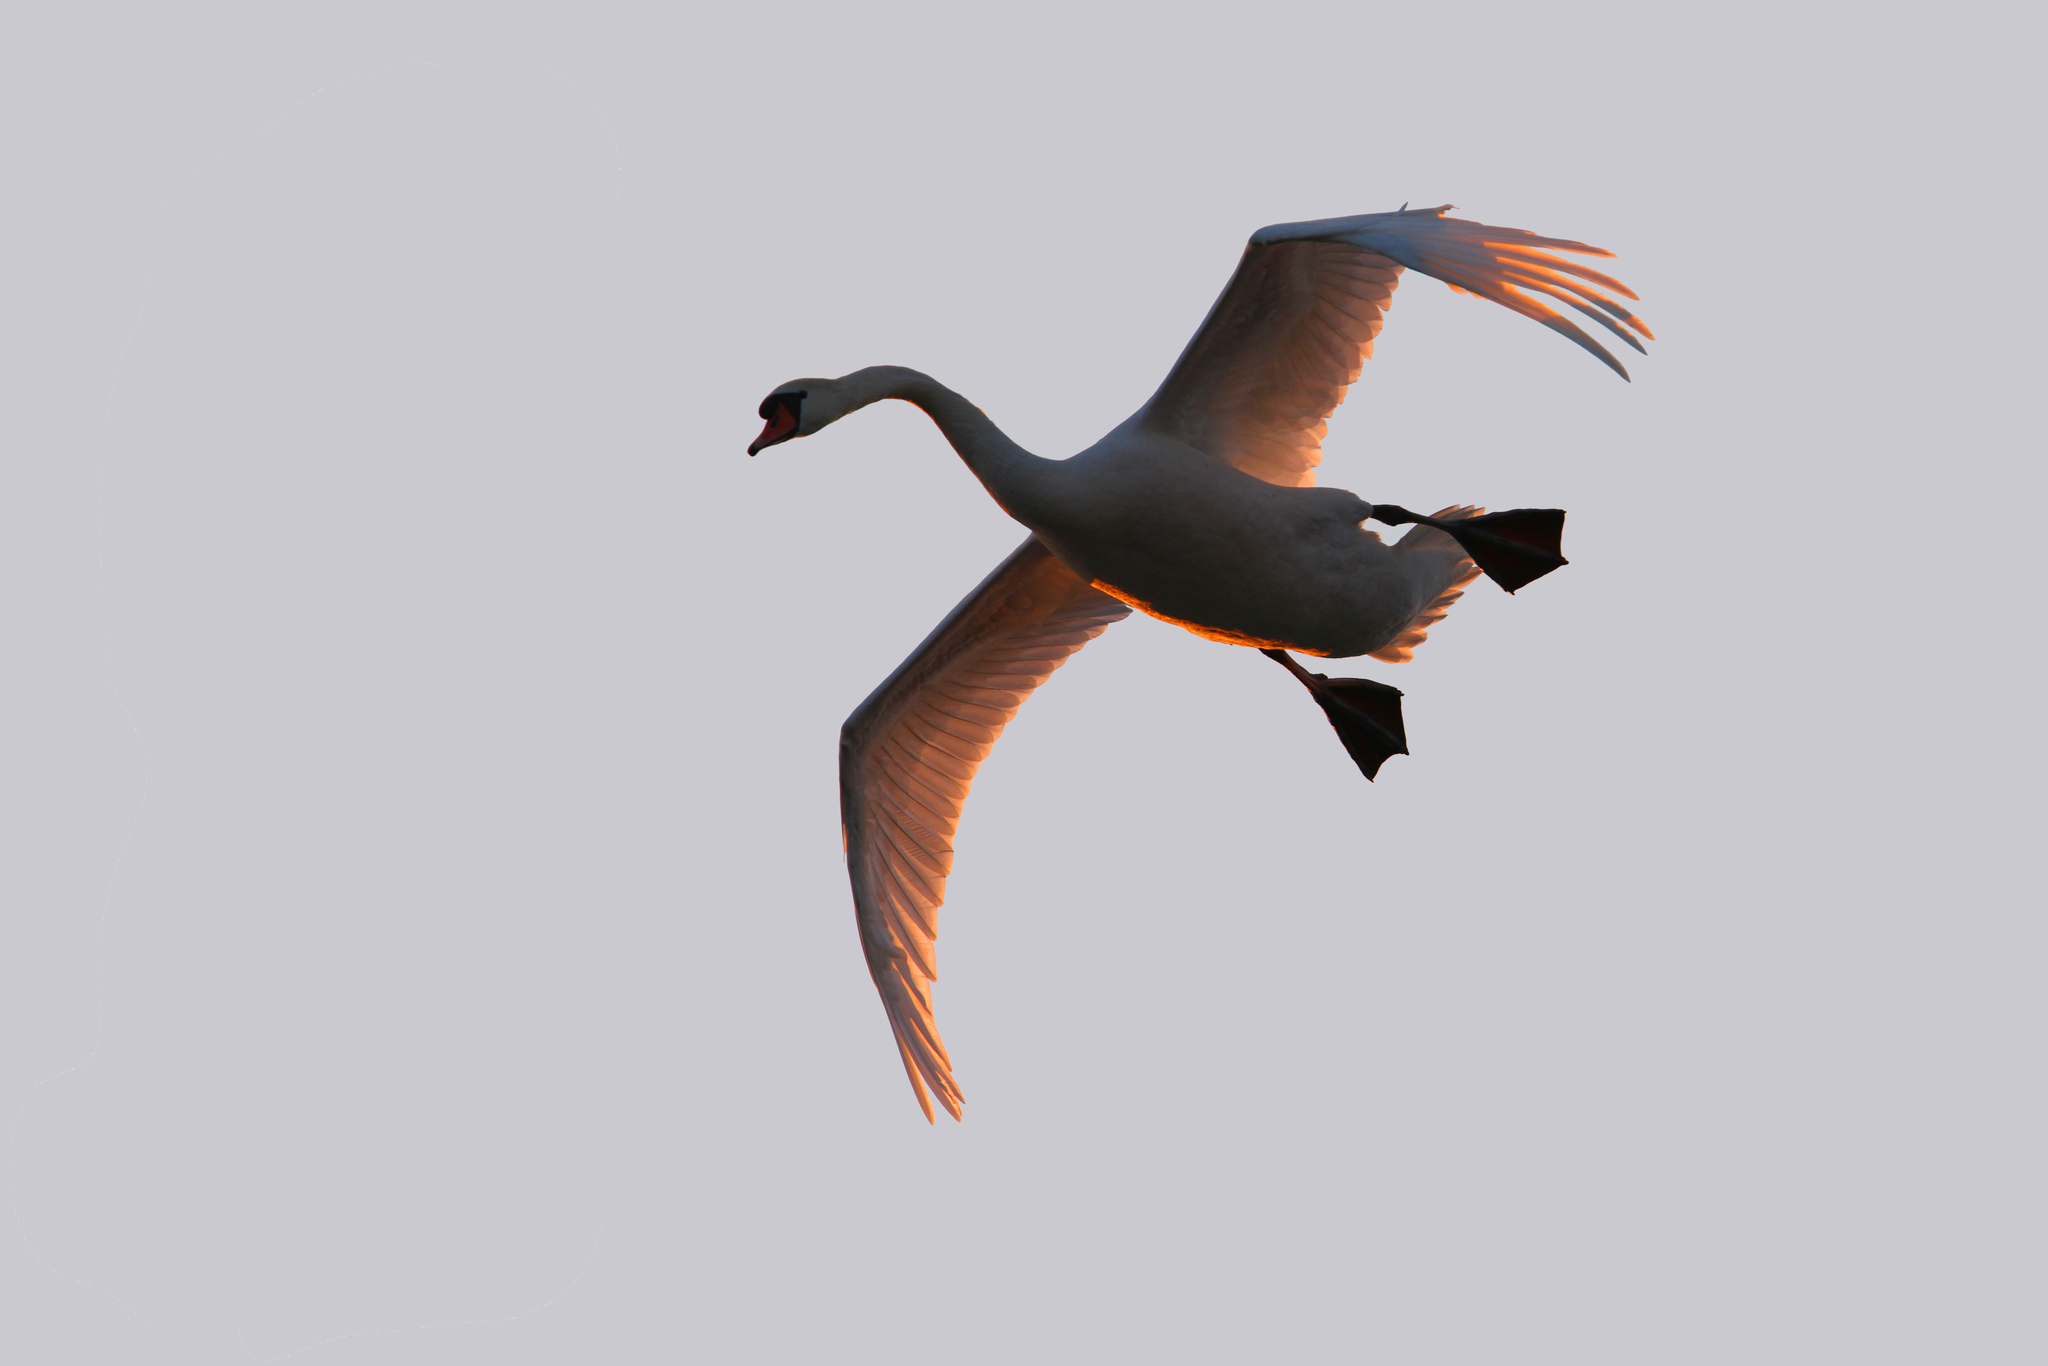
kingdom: Animalia
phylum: Chordata
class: Aves
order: Anseriformes
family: Anatidae
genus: Cygnus
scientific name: Cygnus olor
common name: Mute swan
